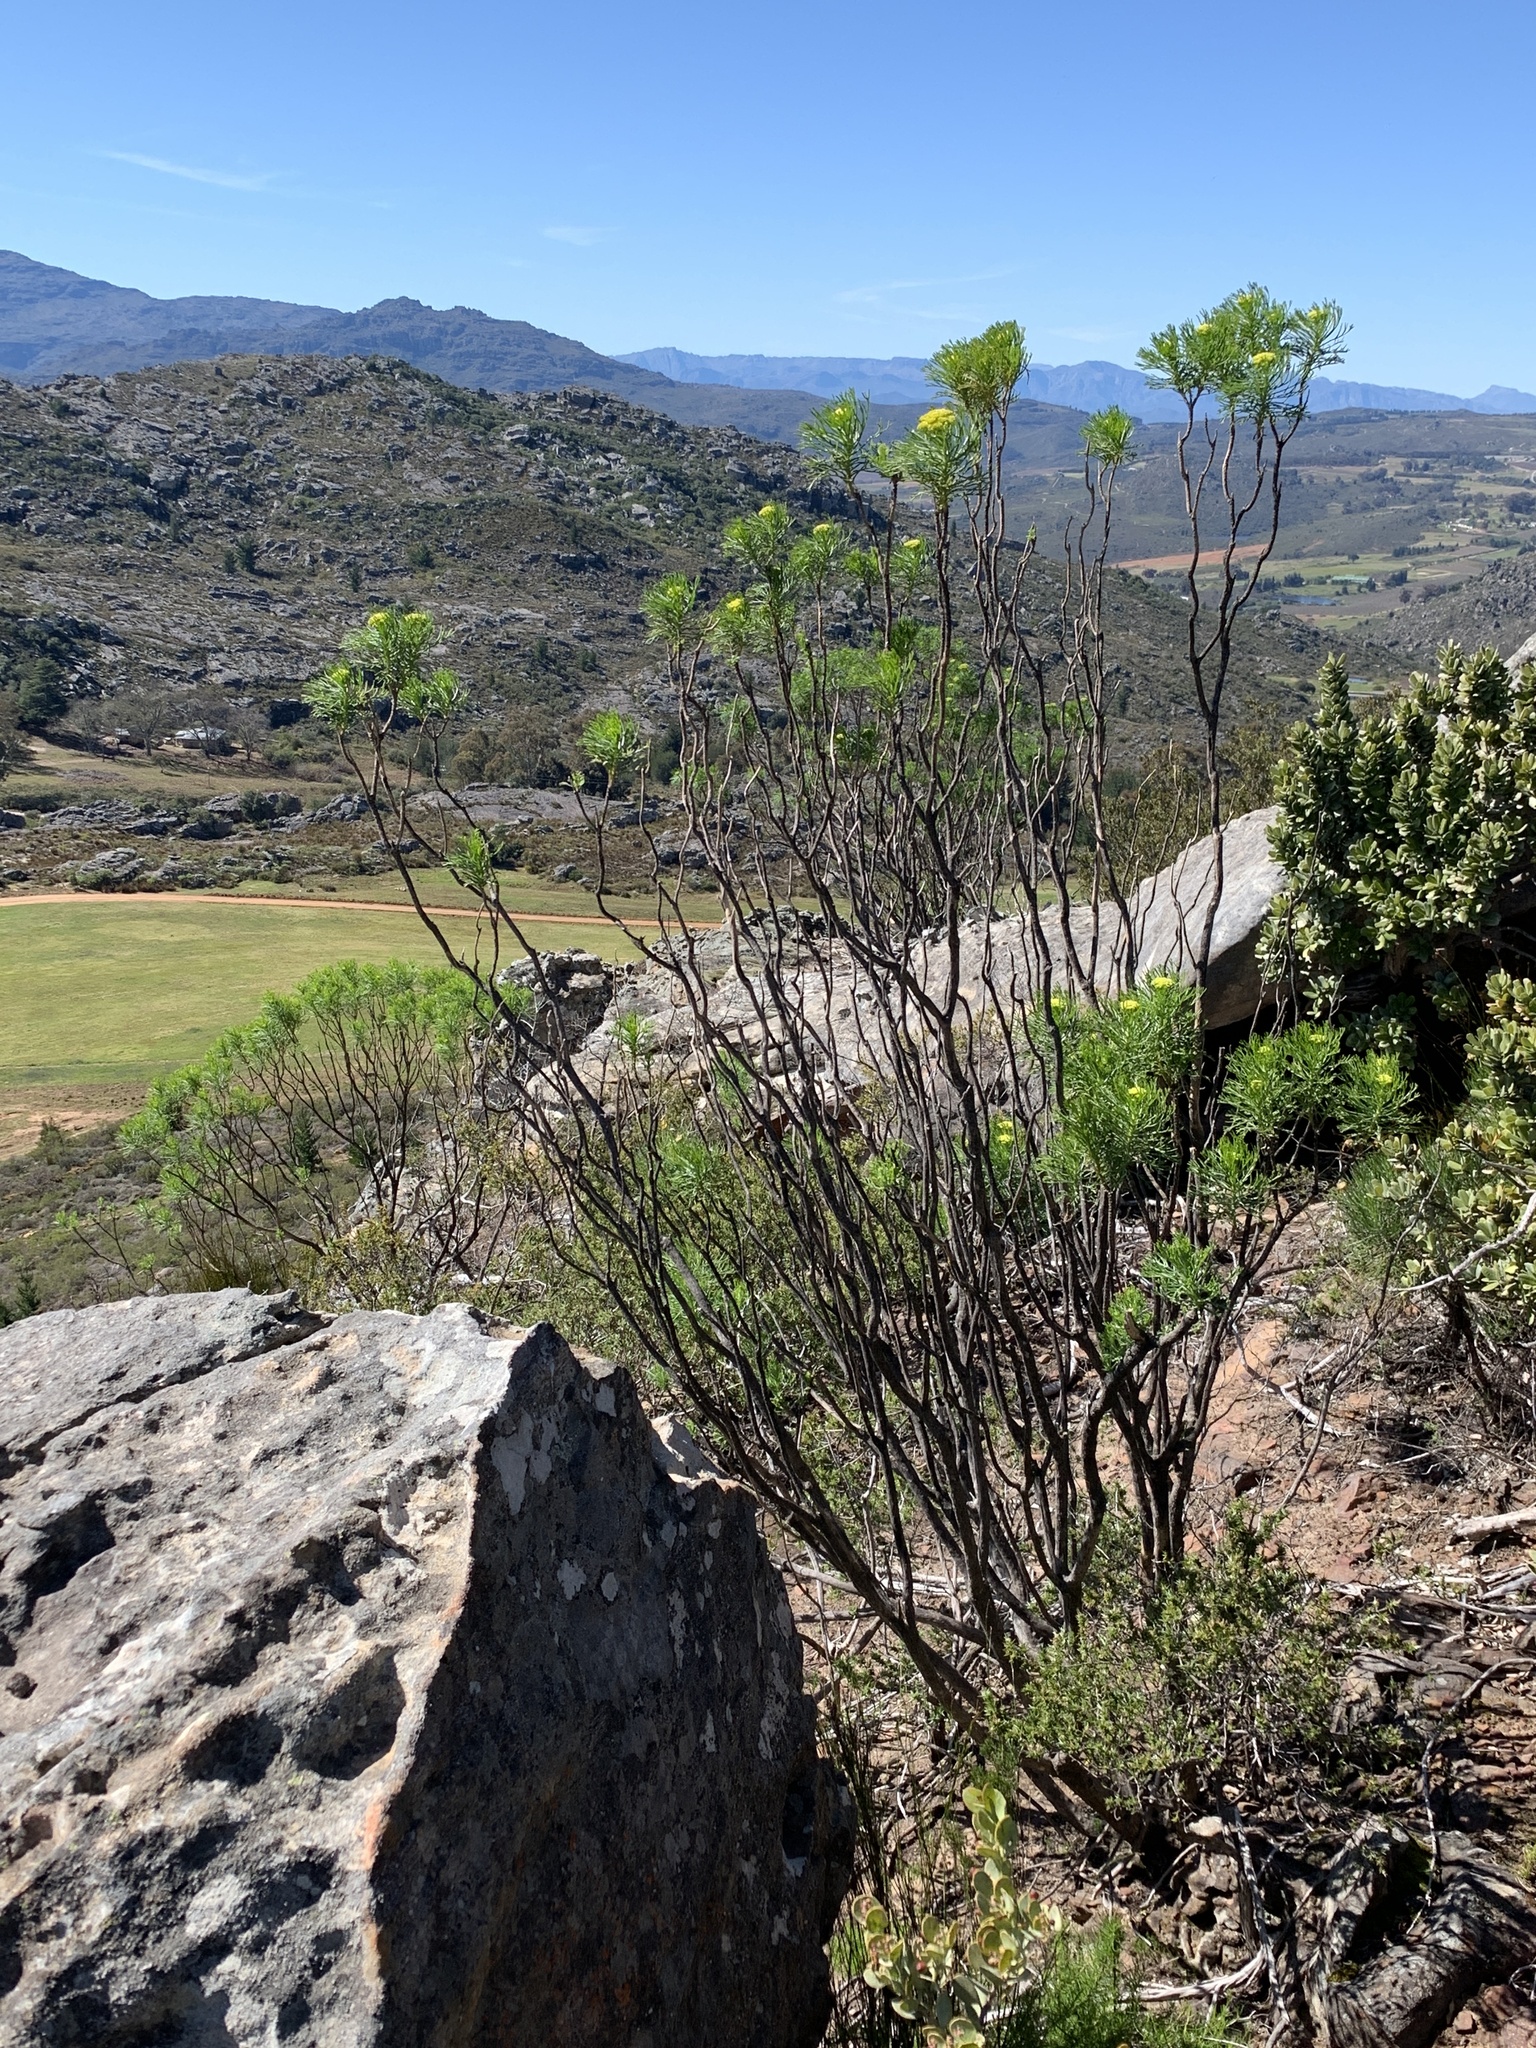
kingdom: Plantae
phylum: Tracheophyta
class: Magnoliopsida
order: Asterales
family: Asteraceae
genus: Hymenolepis
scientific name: Hymenolepis crithmifolia
